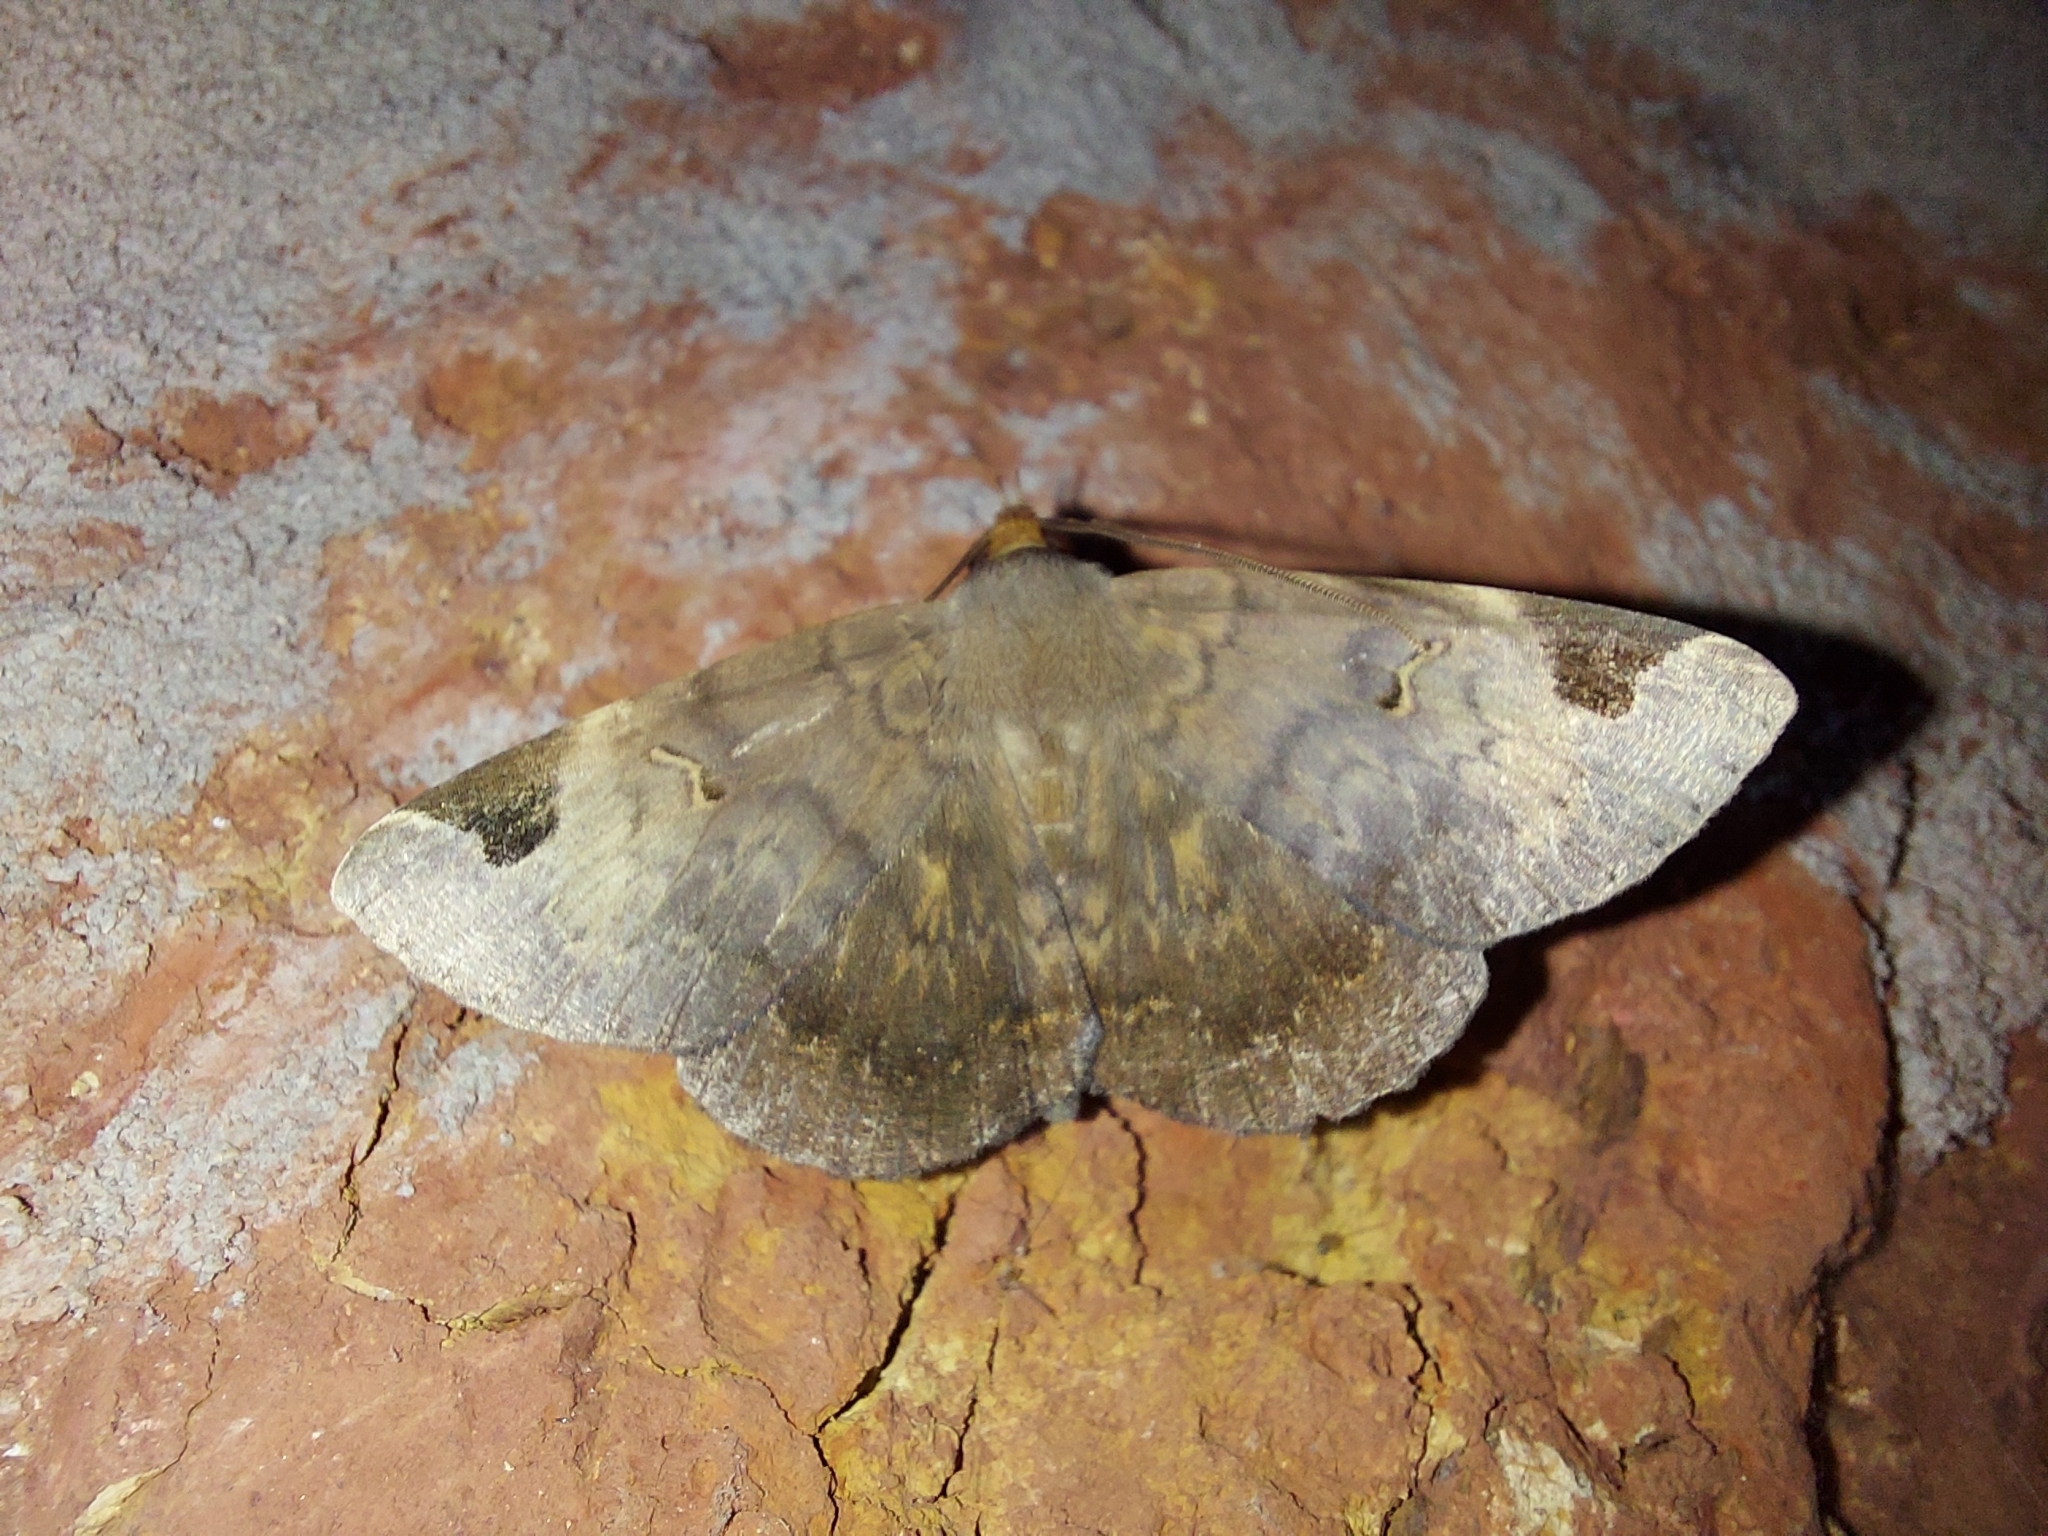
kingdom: Animalia
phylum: Arthropoda
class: Insecta
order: Lepidoptera
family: Erebidae
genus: Mecodina
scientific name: Mecodina praecipua
